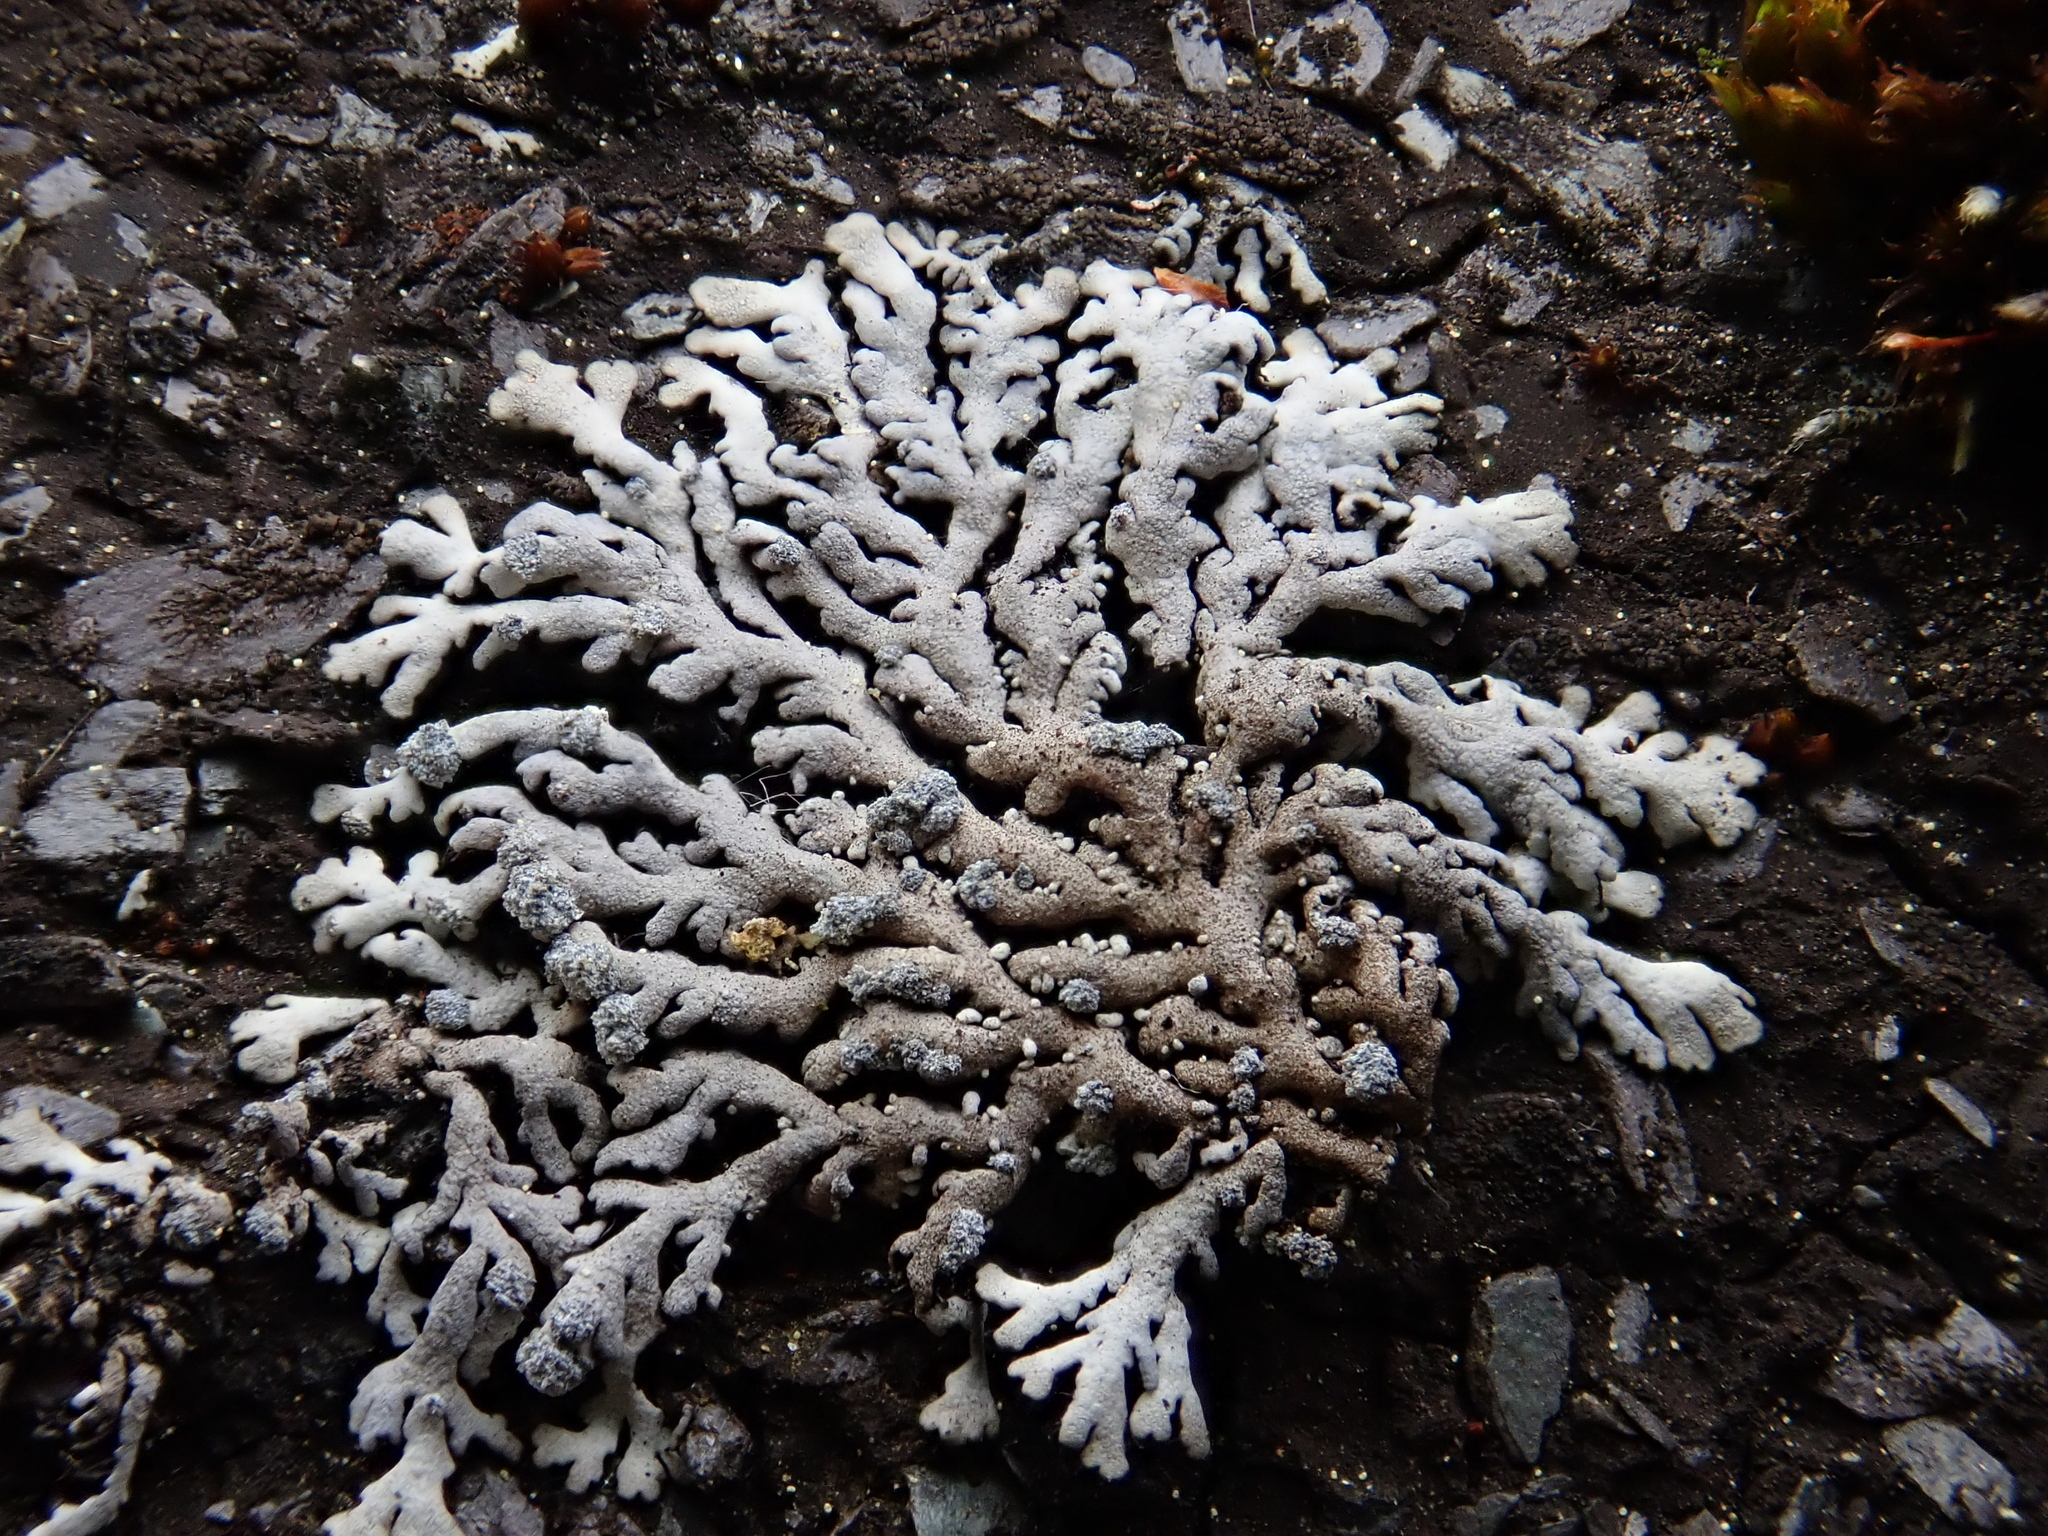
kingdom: Fungi
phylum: Ascomycota
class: Lecanoromycetes
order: Caliciales
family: Physciaceae
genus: Physcia
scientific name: Physcia caesia
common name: Blue-gray rosette lichen
